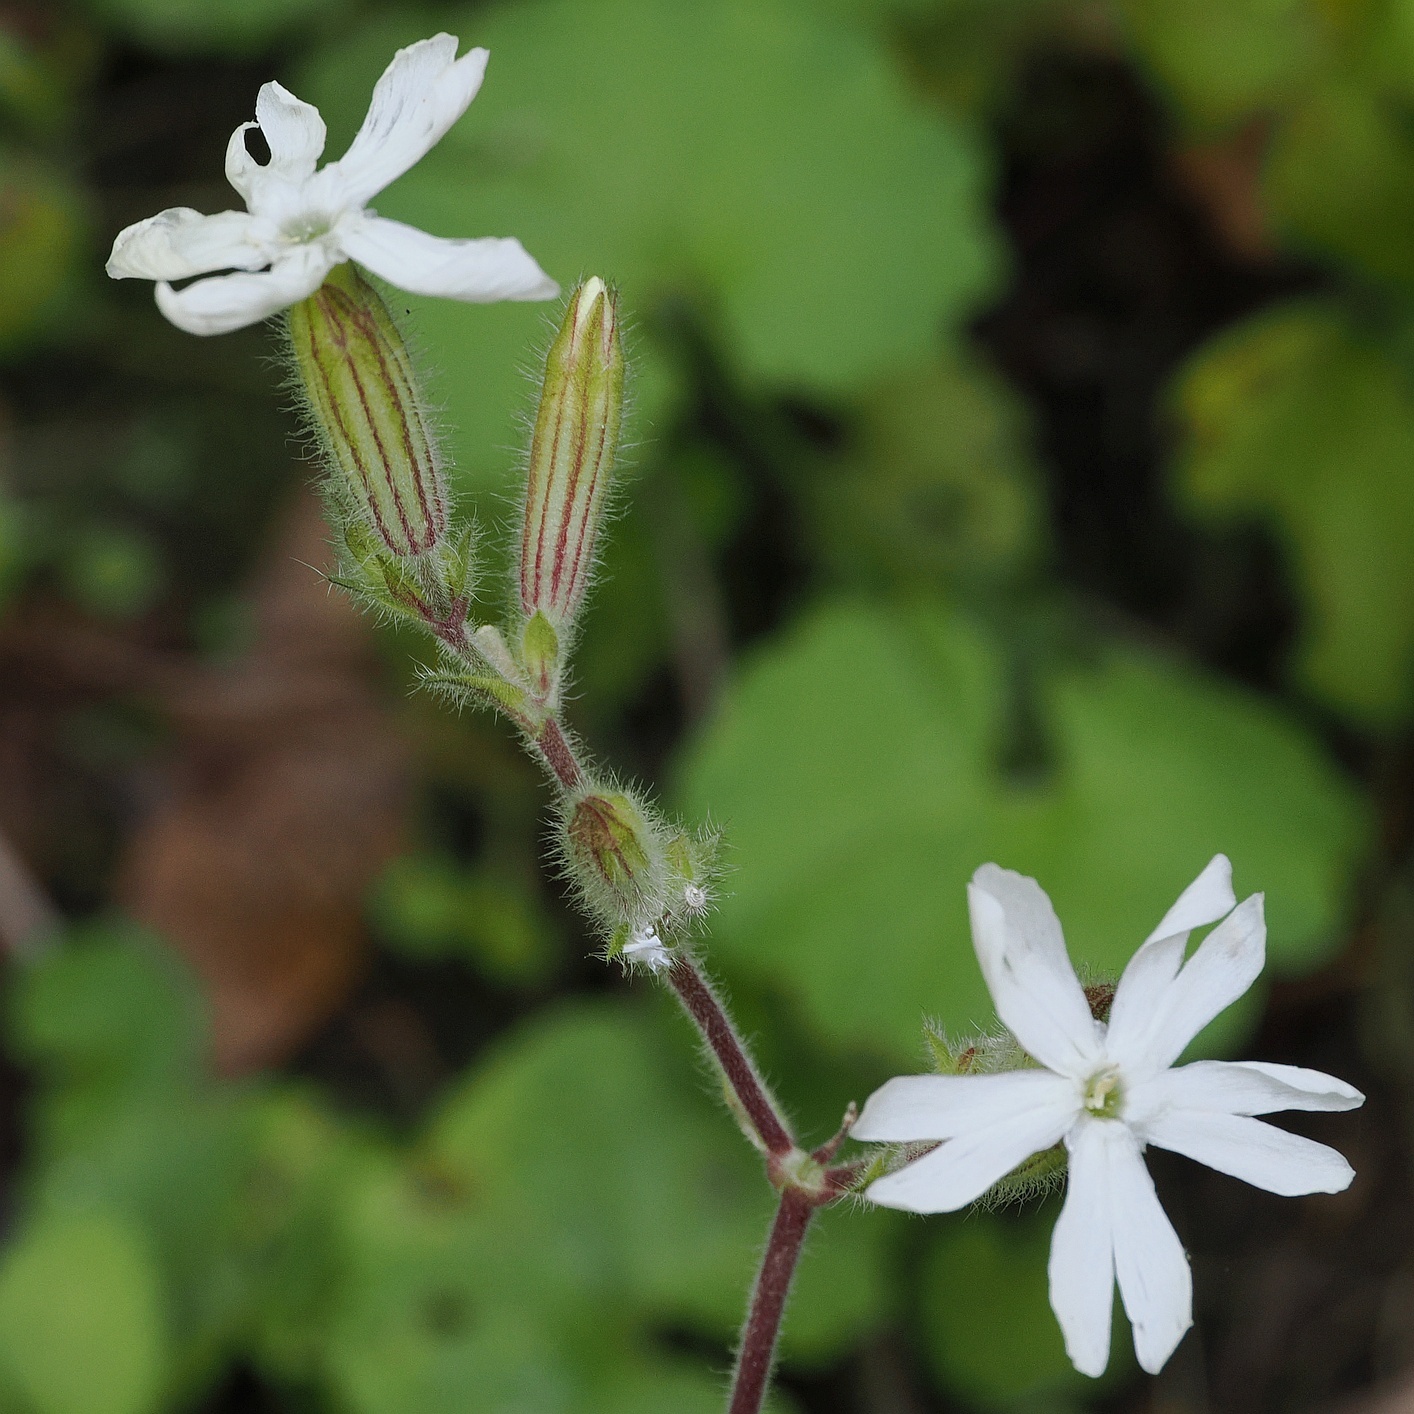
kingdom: Plantae
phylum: Tracheophyta
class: Magnoliopsida
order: Caryophyllales
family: Caryophyllaceae
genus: Silene
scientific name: Silene latifolia
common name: White campion
